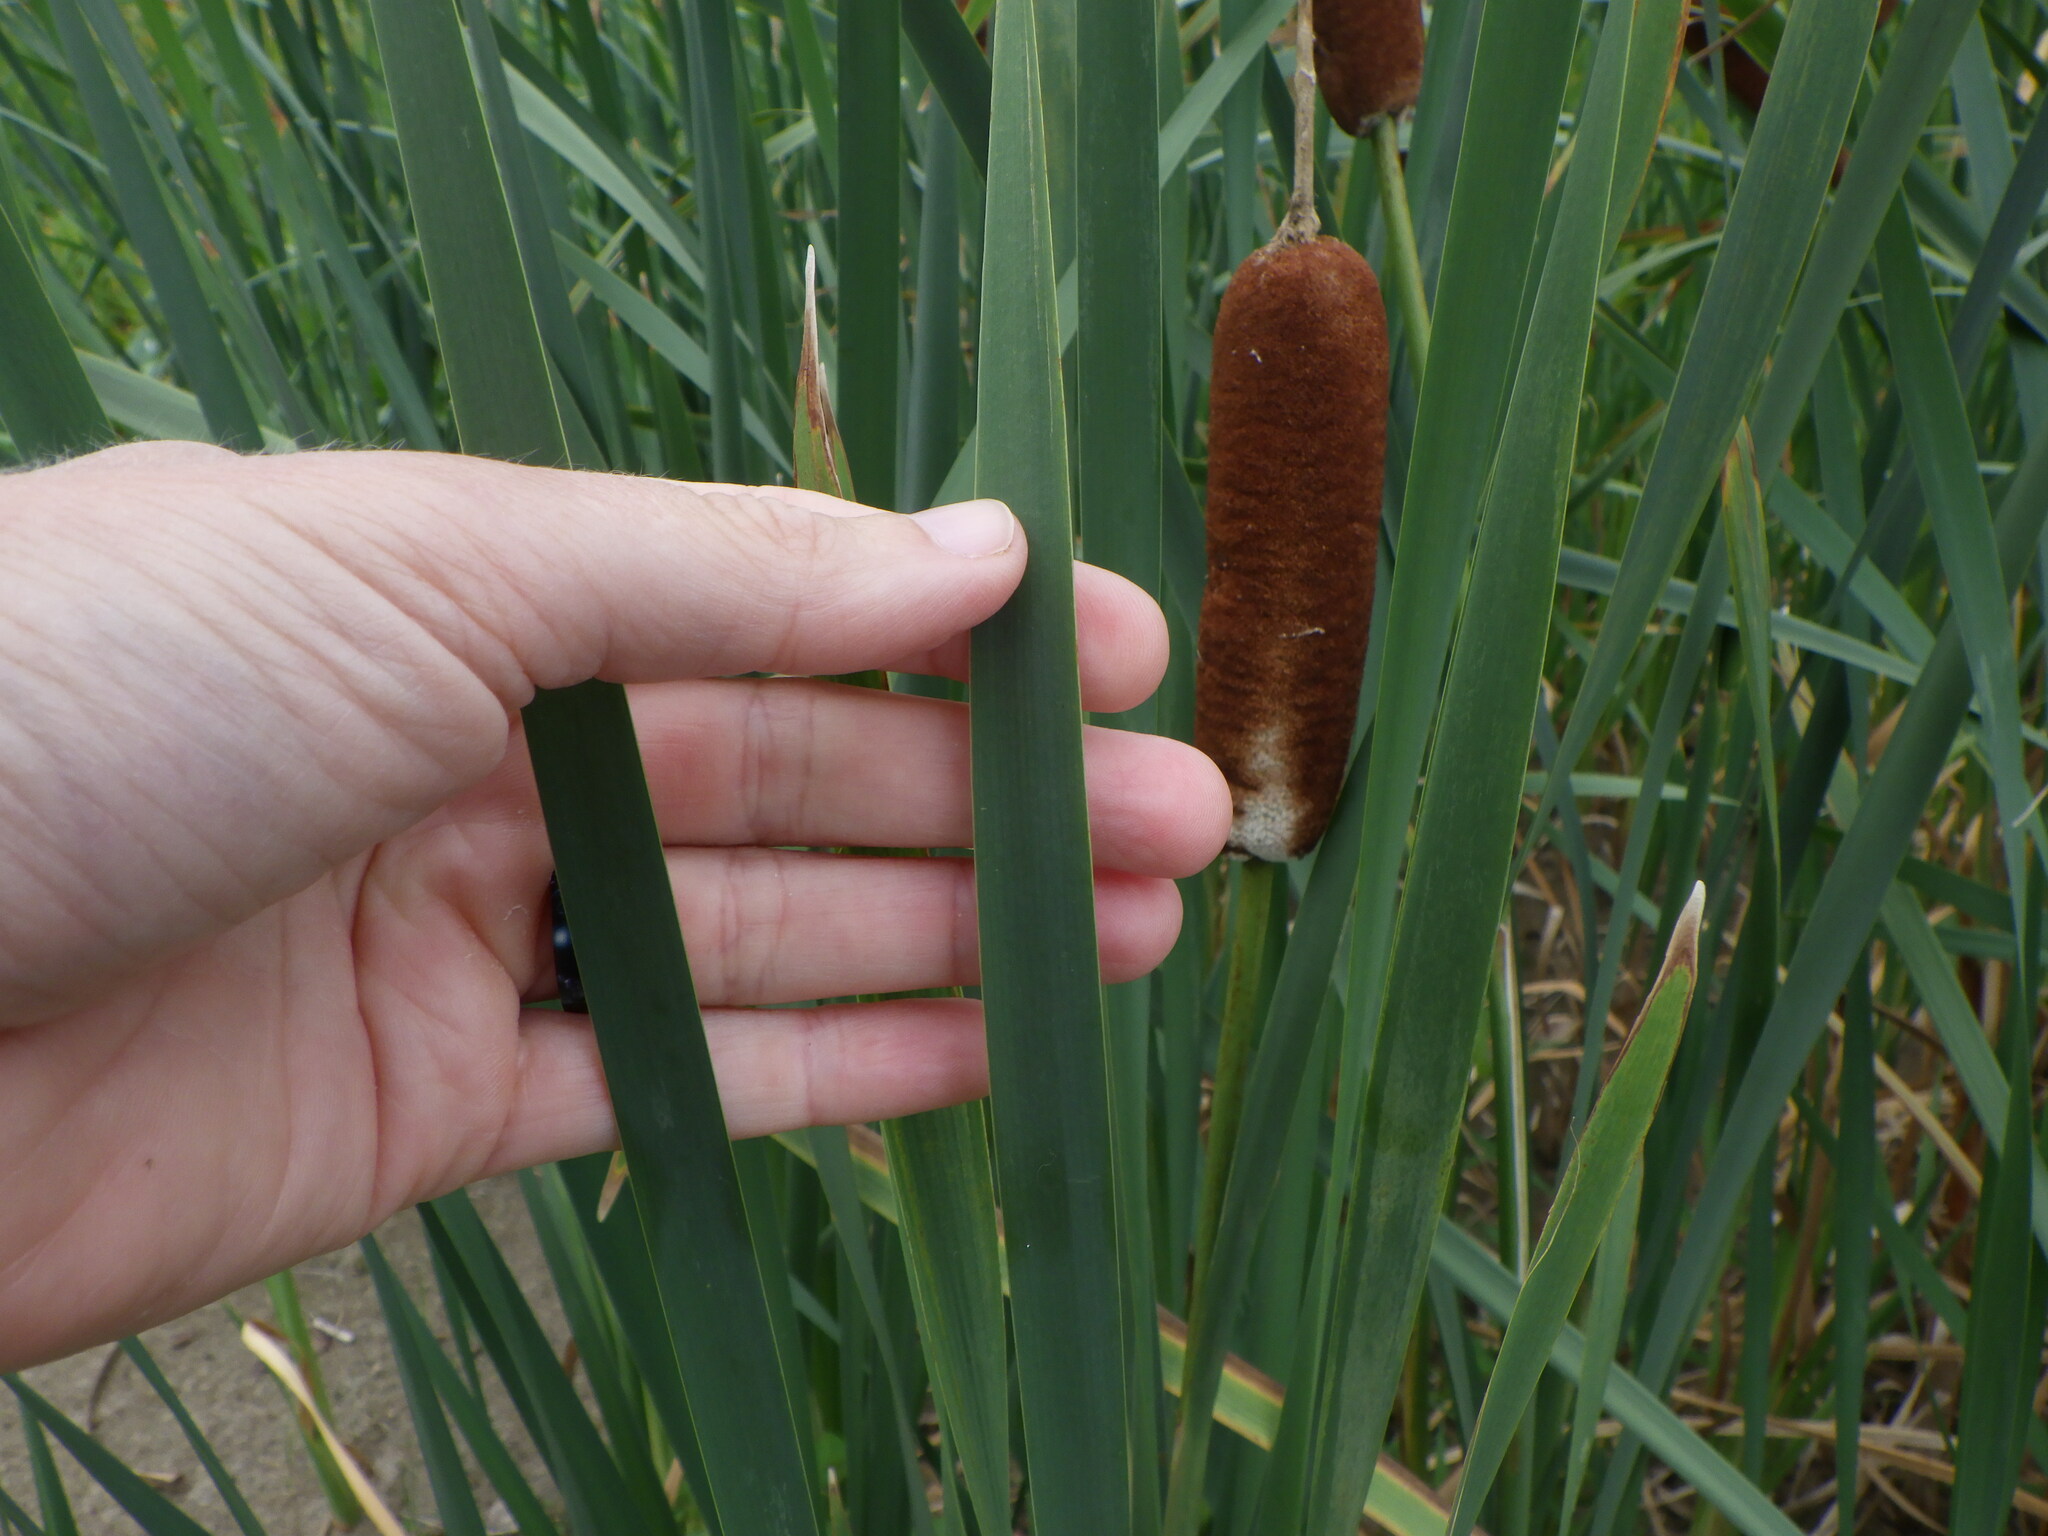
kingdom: Plantae
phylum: Tracheophyta
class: Liliopsida
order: Poales
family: Typhaceae
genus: Typha
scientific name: Typha angustifolia
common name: Lesser bulrush
